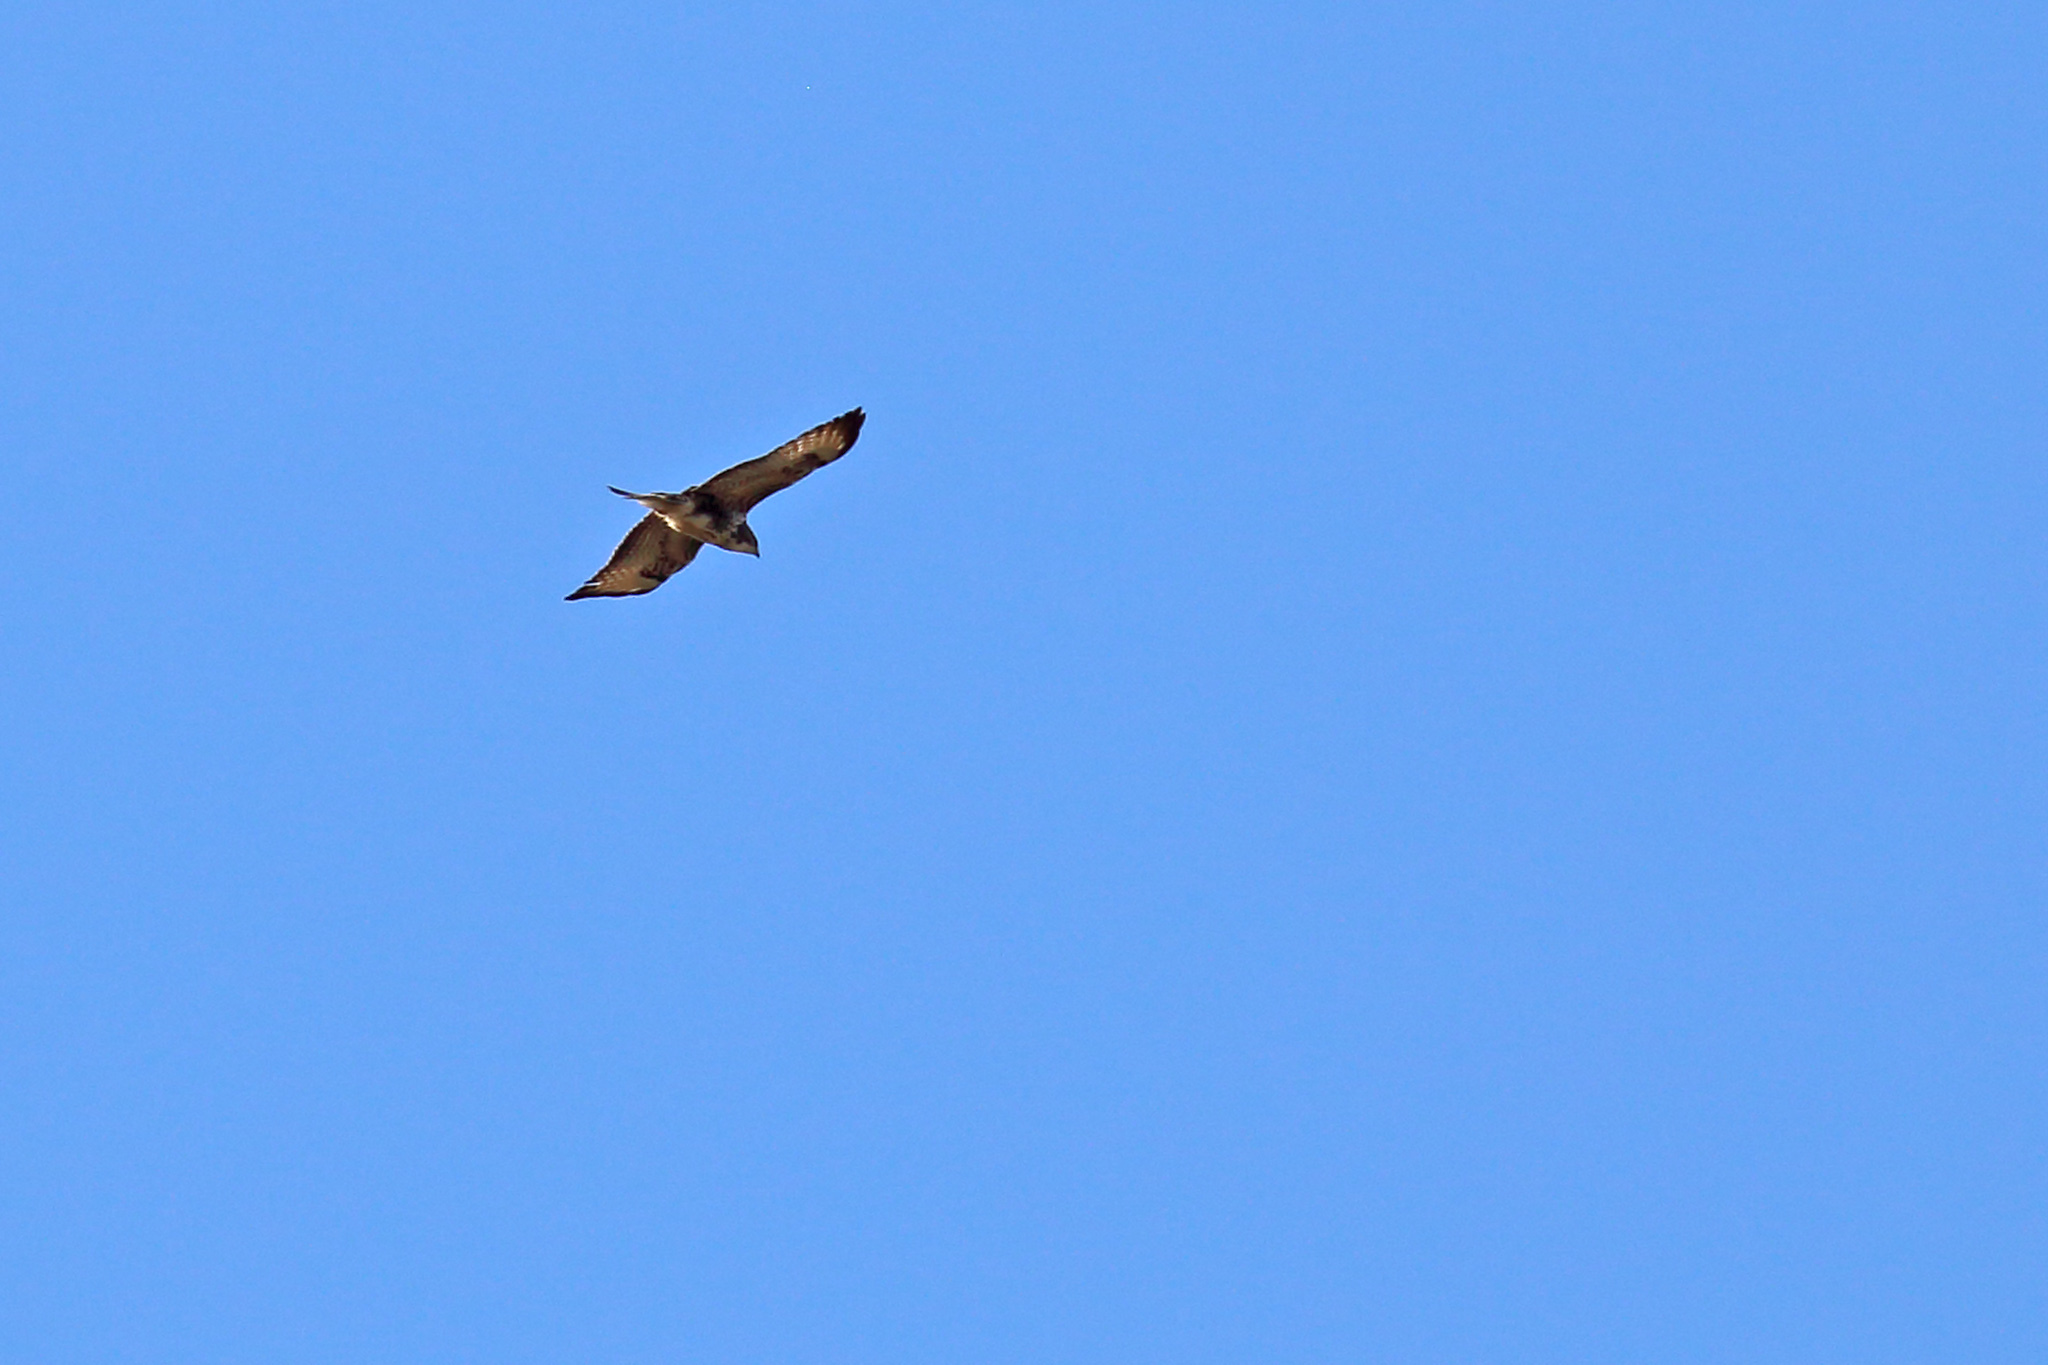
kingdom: Animalia
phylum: Chordata
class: Aves
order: Accipitriformes
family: Accipitridae
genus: Buteo
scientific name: Buteo buteo
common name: Common buzzard
